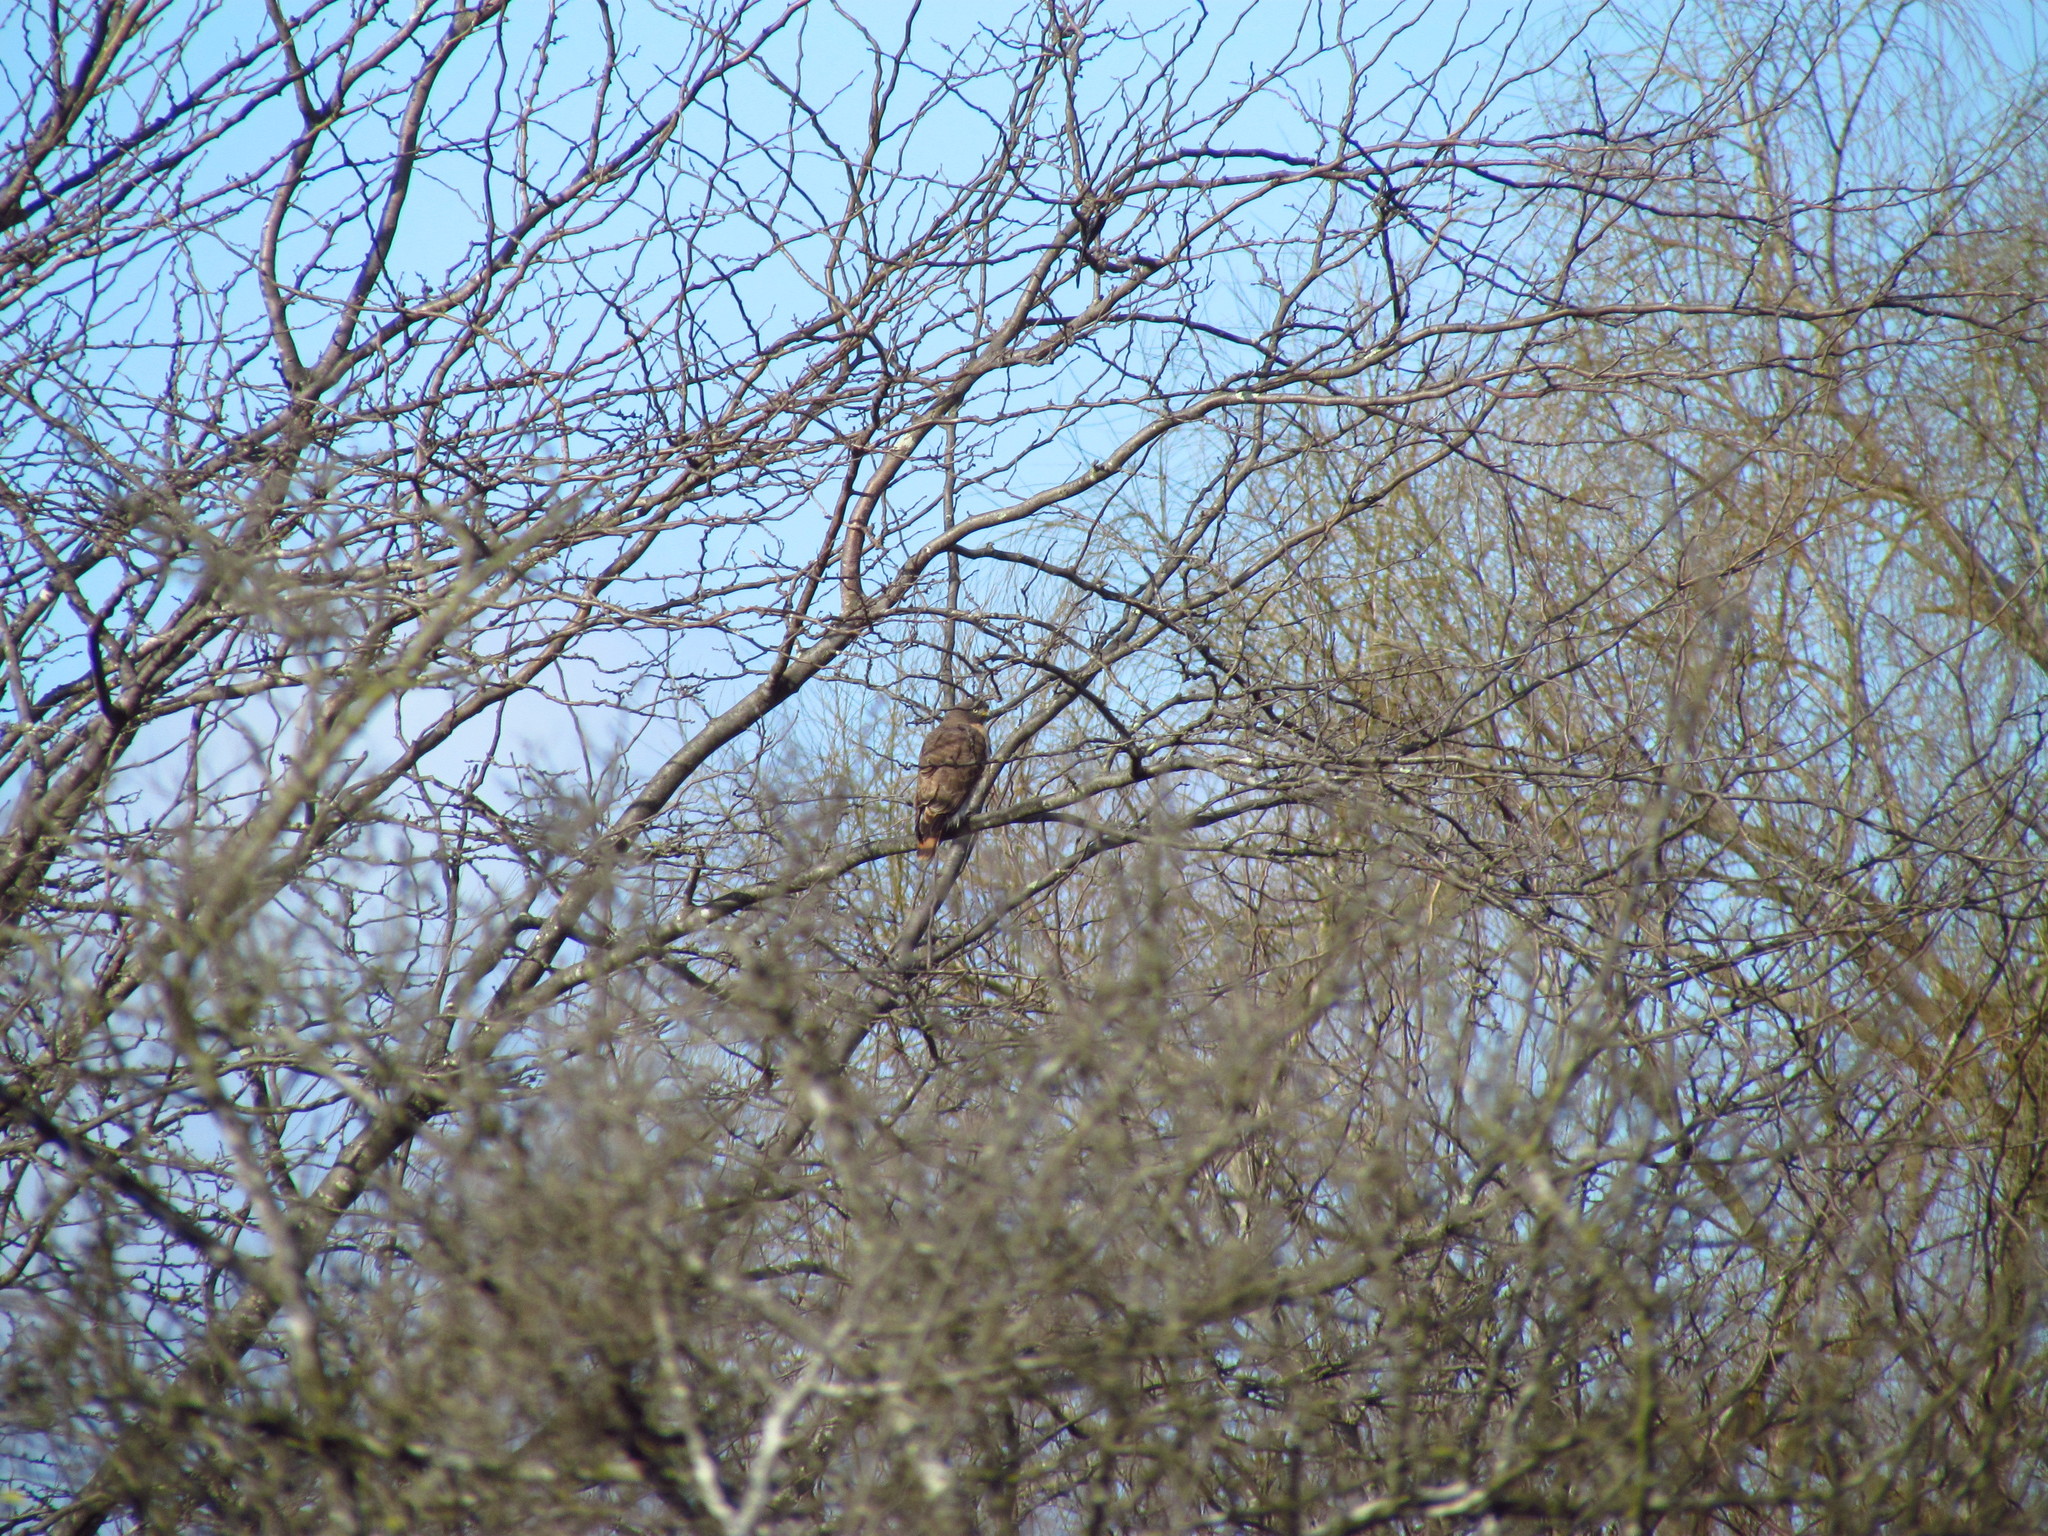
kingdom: Animalia
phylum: Chordata
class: Aves
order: Accipitriformes
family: Accipitridae
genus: Rupornis
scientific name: Rupornis magnirostris
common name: Roadside hawk
